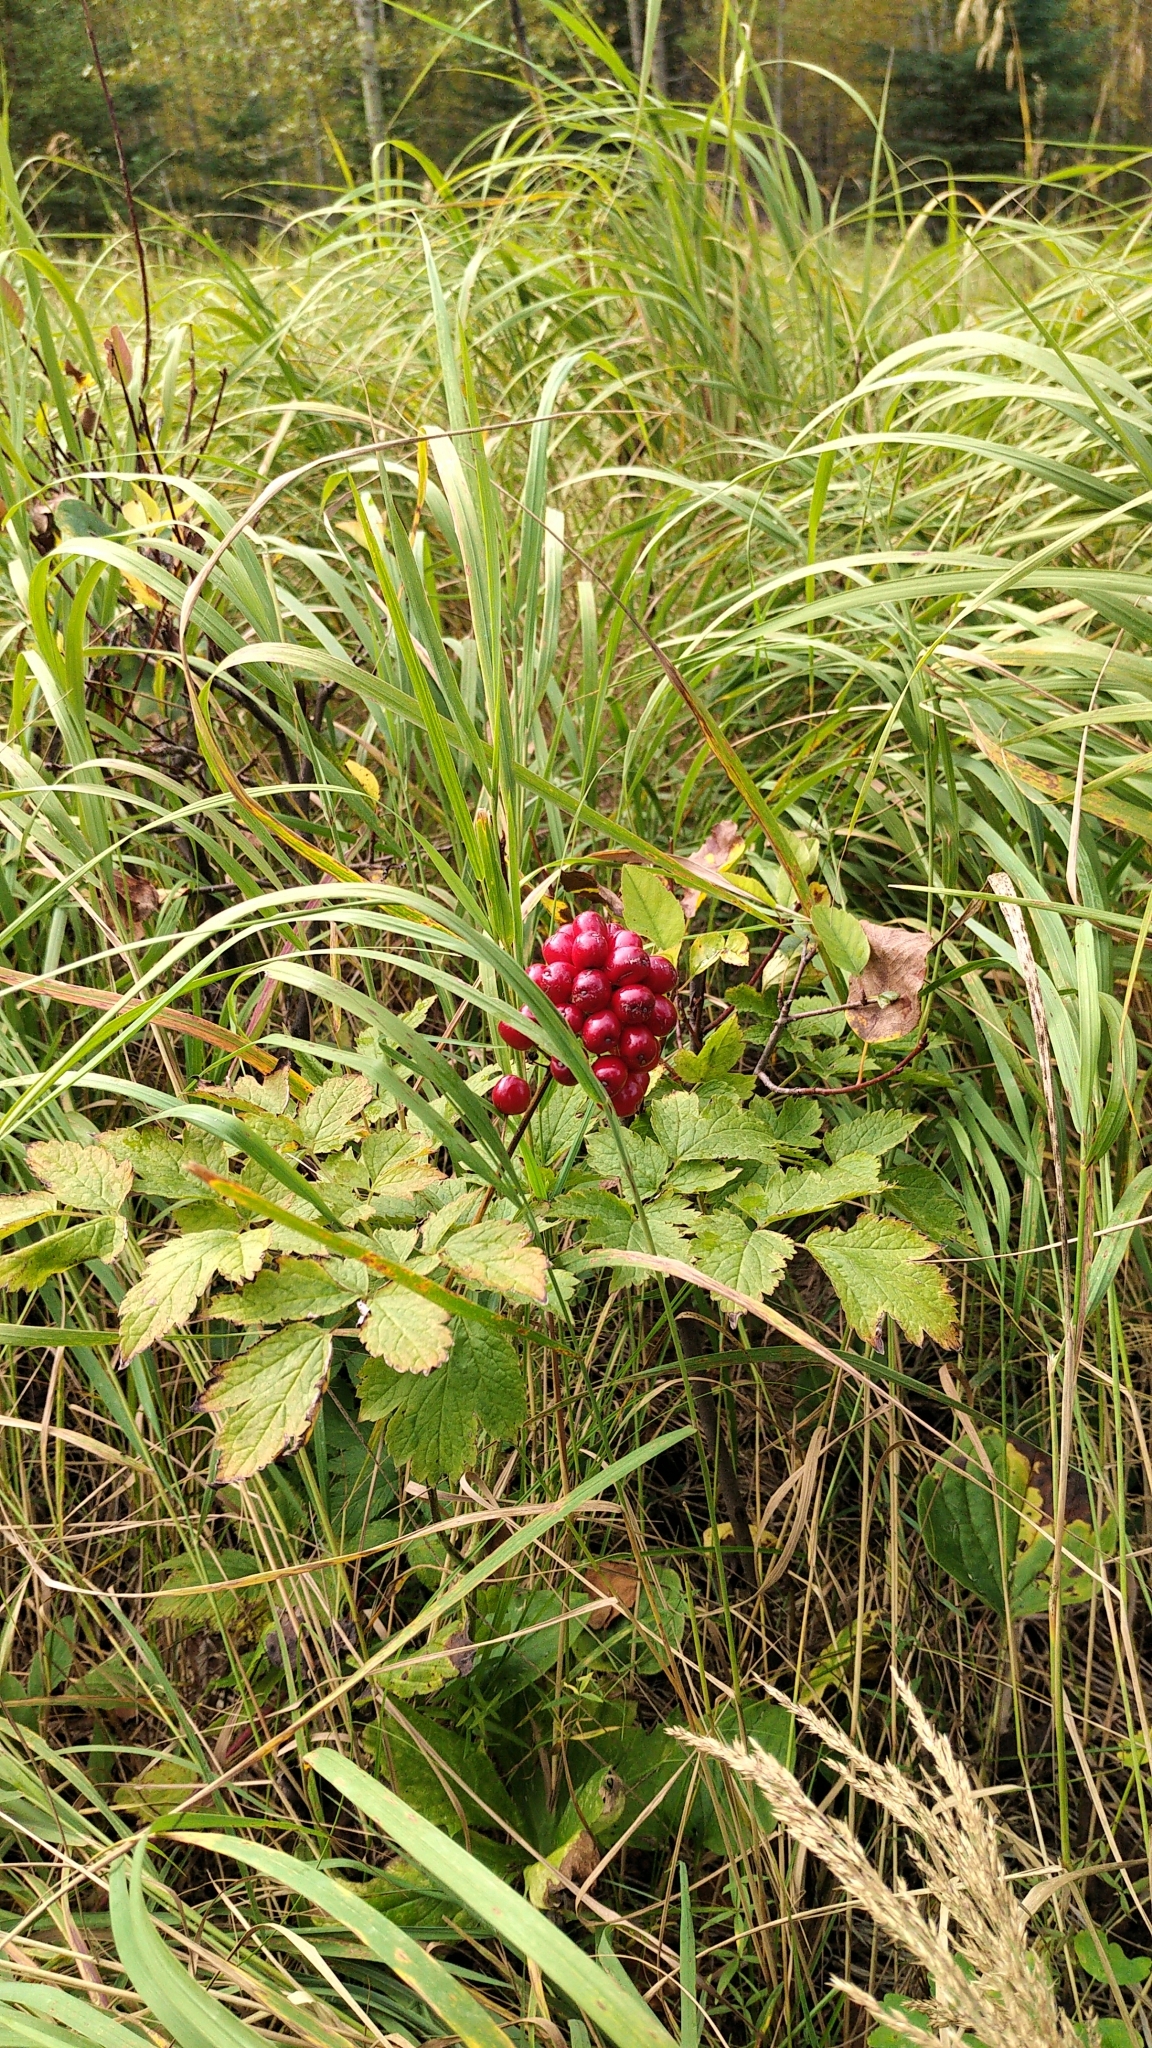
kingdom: Plantae
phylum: Tracheophyta
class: Magnoliopsida
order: Ranunculales
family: Ranunculaceae
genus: Actaea
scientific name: Actaea rubra
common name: Red baneberry
